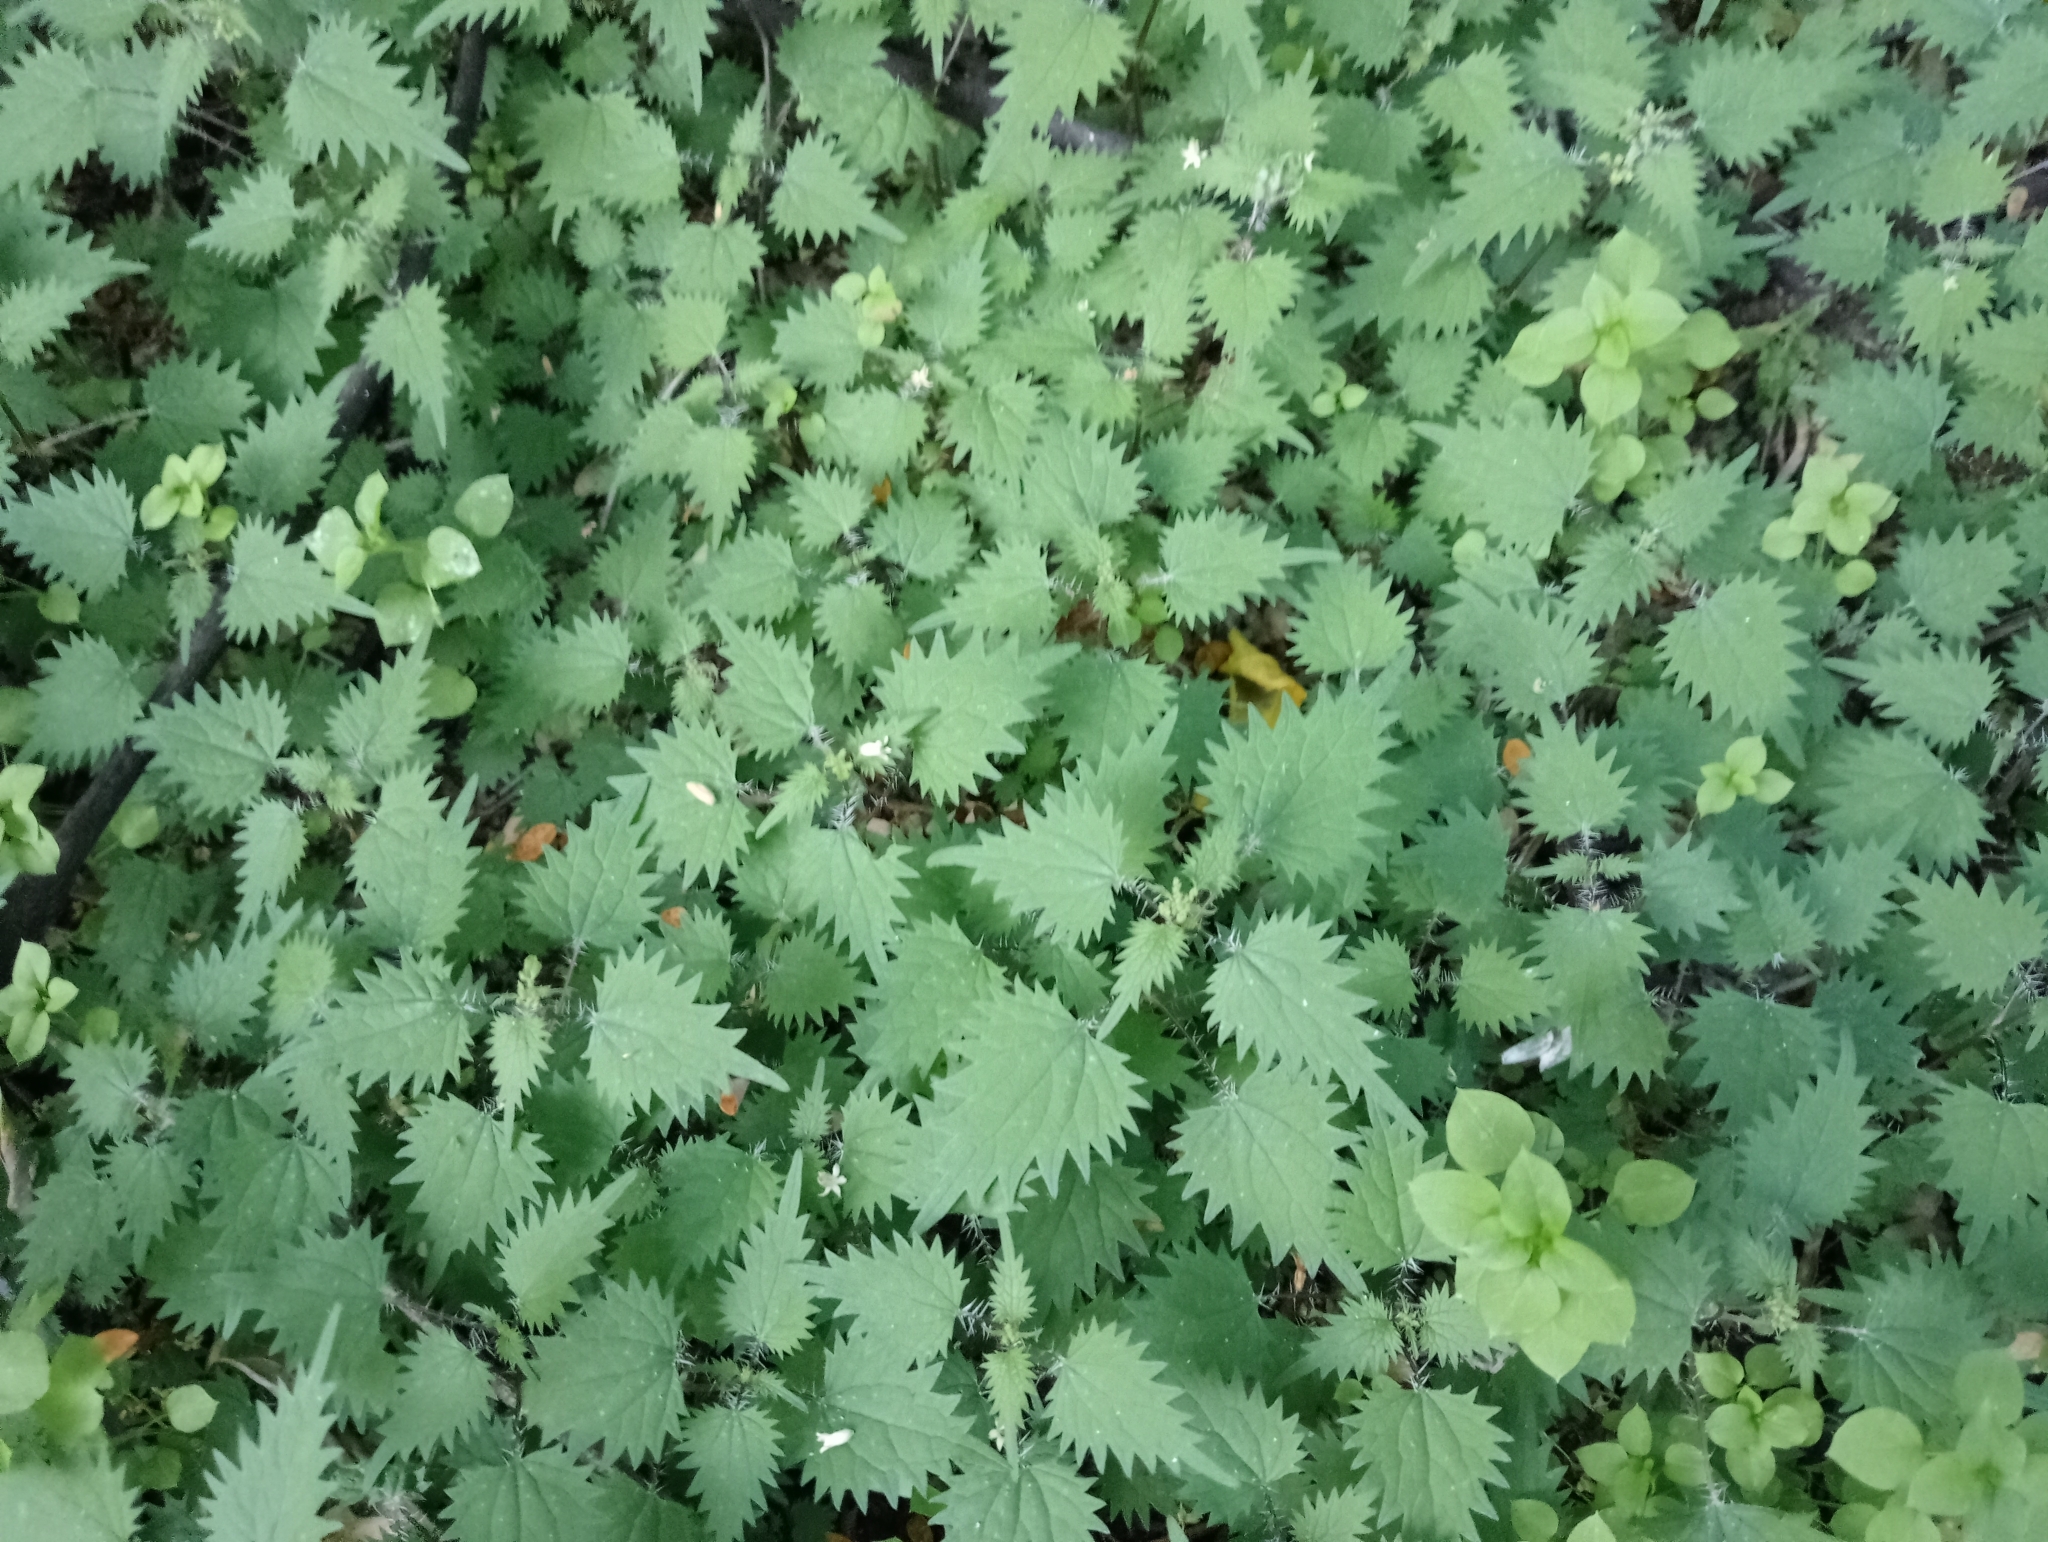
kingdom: Plantae
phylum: Tracheophyta
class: Magnoliopsida
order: Rosales
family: Urticaceae
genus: Urtica
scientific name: Urtica sykesii
